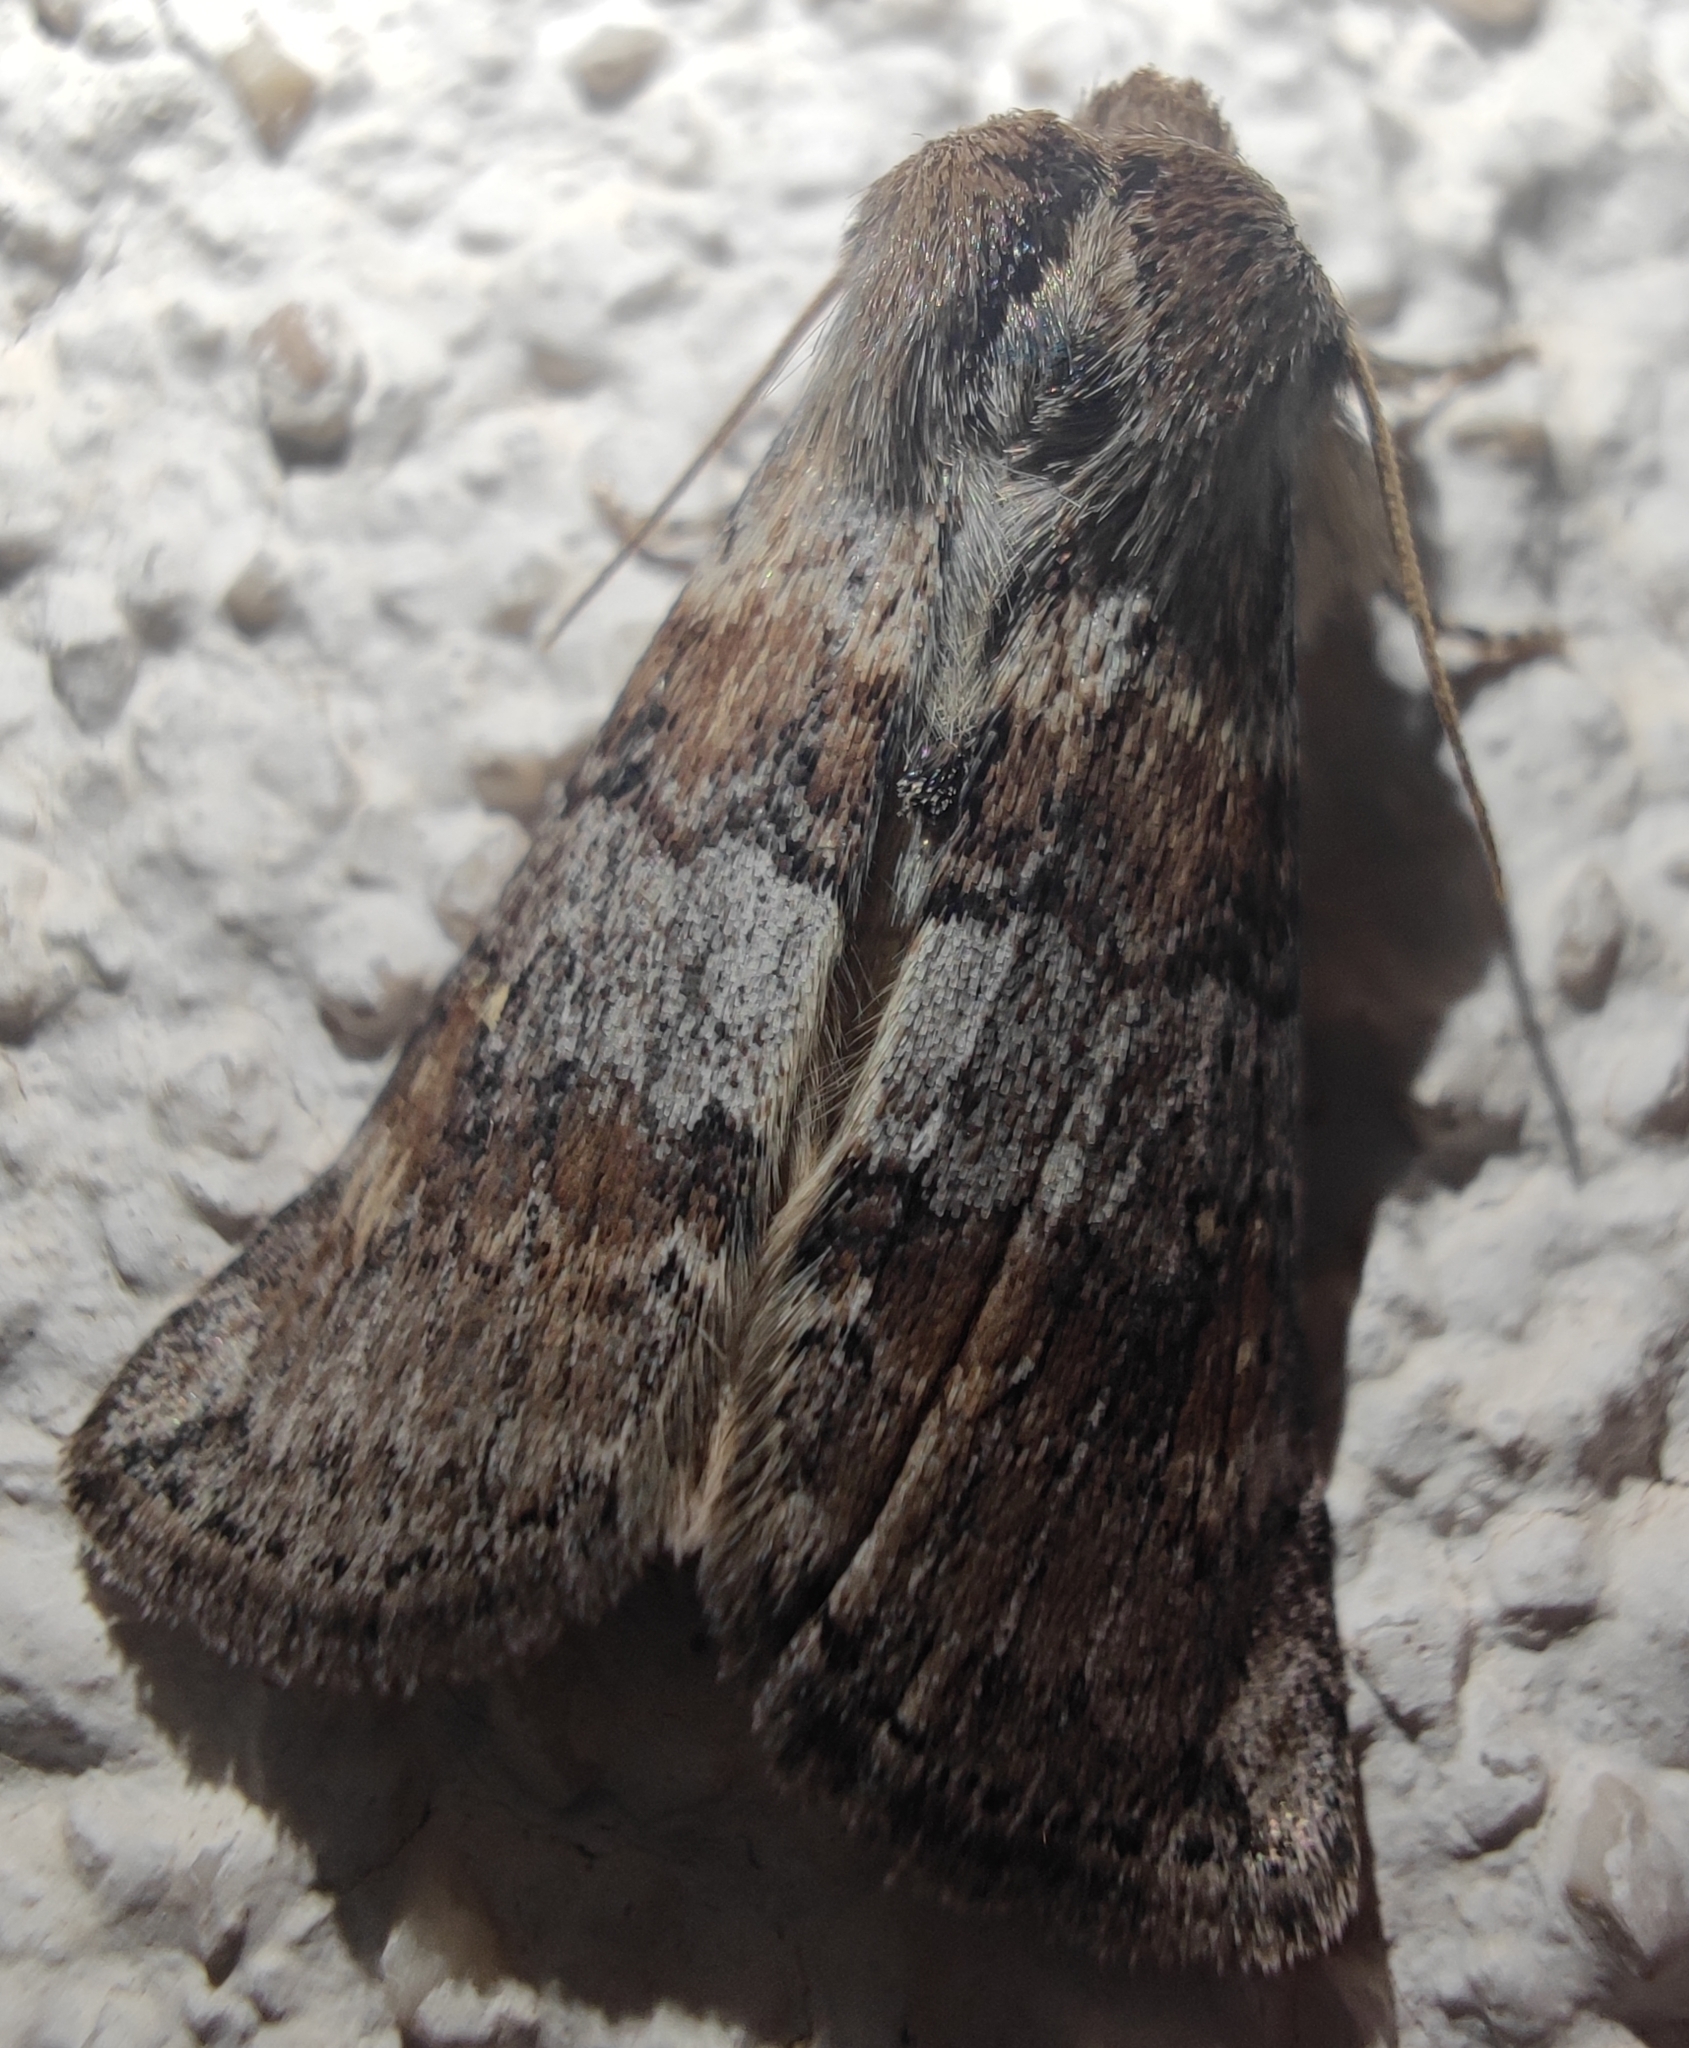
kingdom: Animalia
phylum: Arthropoda
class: Insecta
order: Lepidoptera
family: Drepanidae
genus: Cymatophorina
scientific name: Cymatophorina diluta
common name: Oak lutestring
